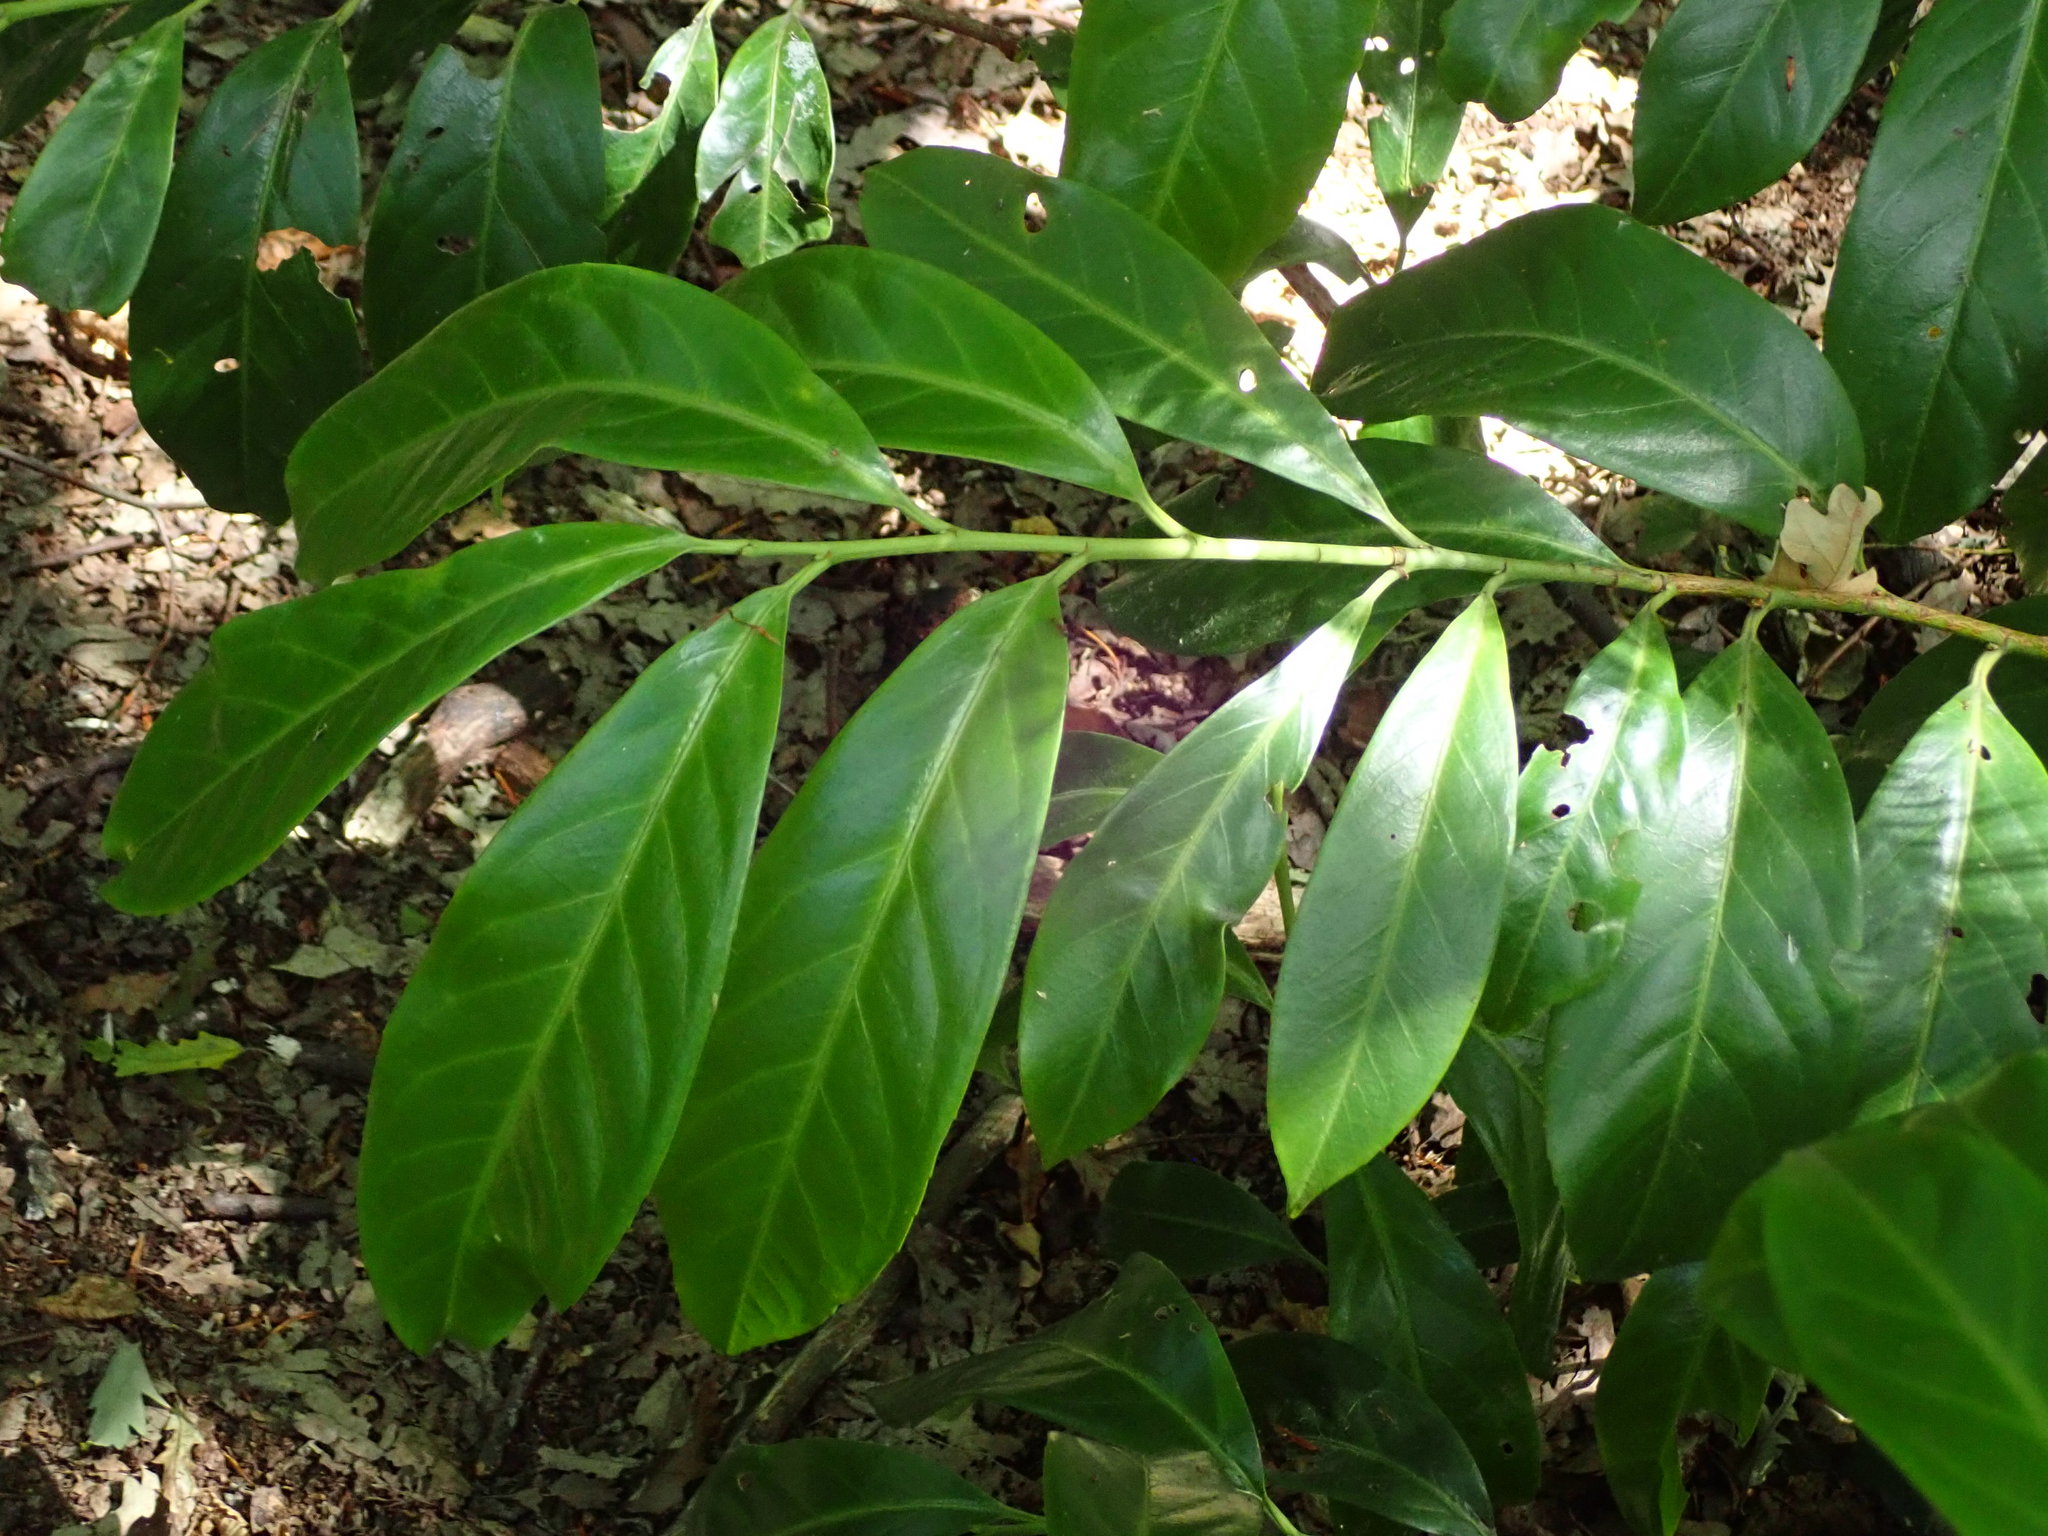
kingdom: Plantae
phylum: Tracheophyta
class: Magnoliopsida
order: Rosales
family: Rosaceae
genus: Prunus
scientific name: Prunus laurocerasus
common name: Cherry laurel
